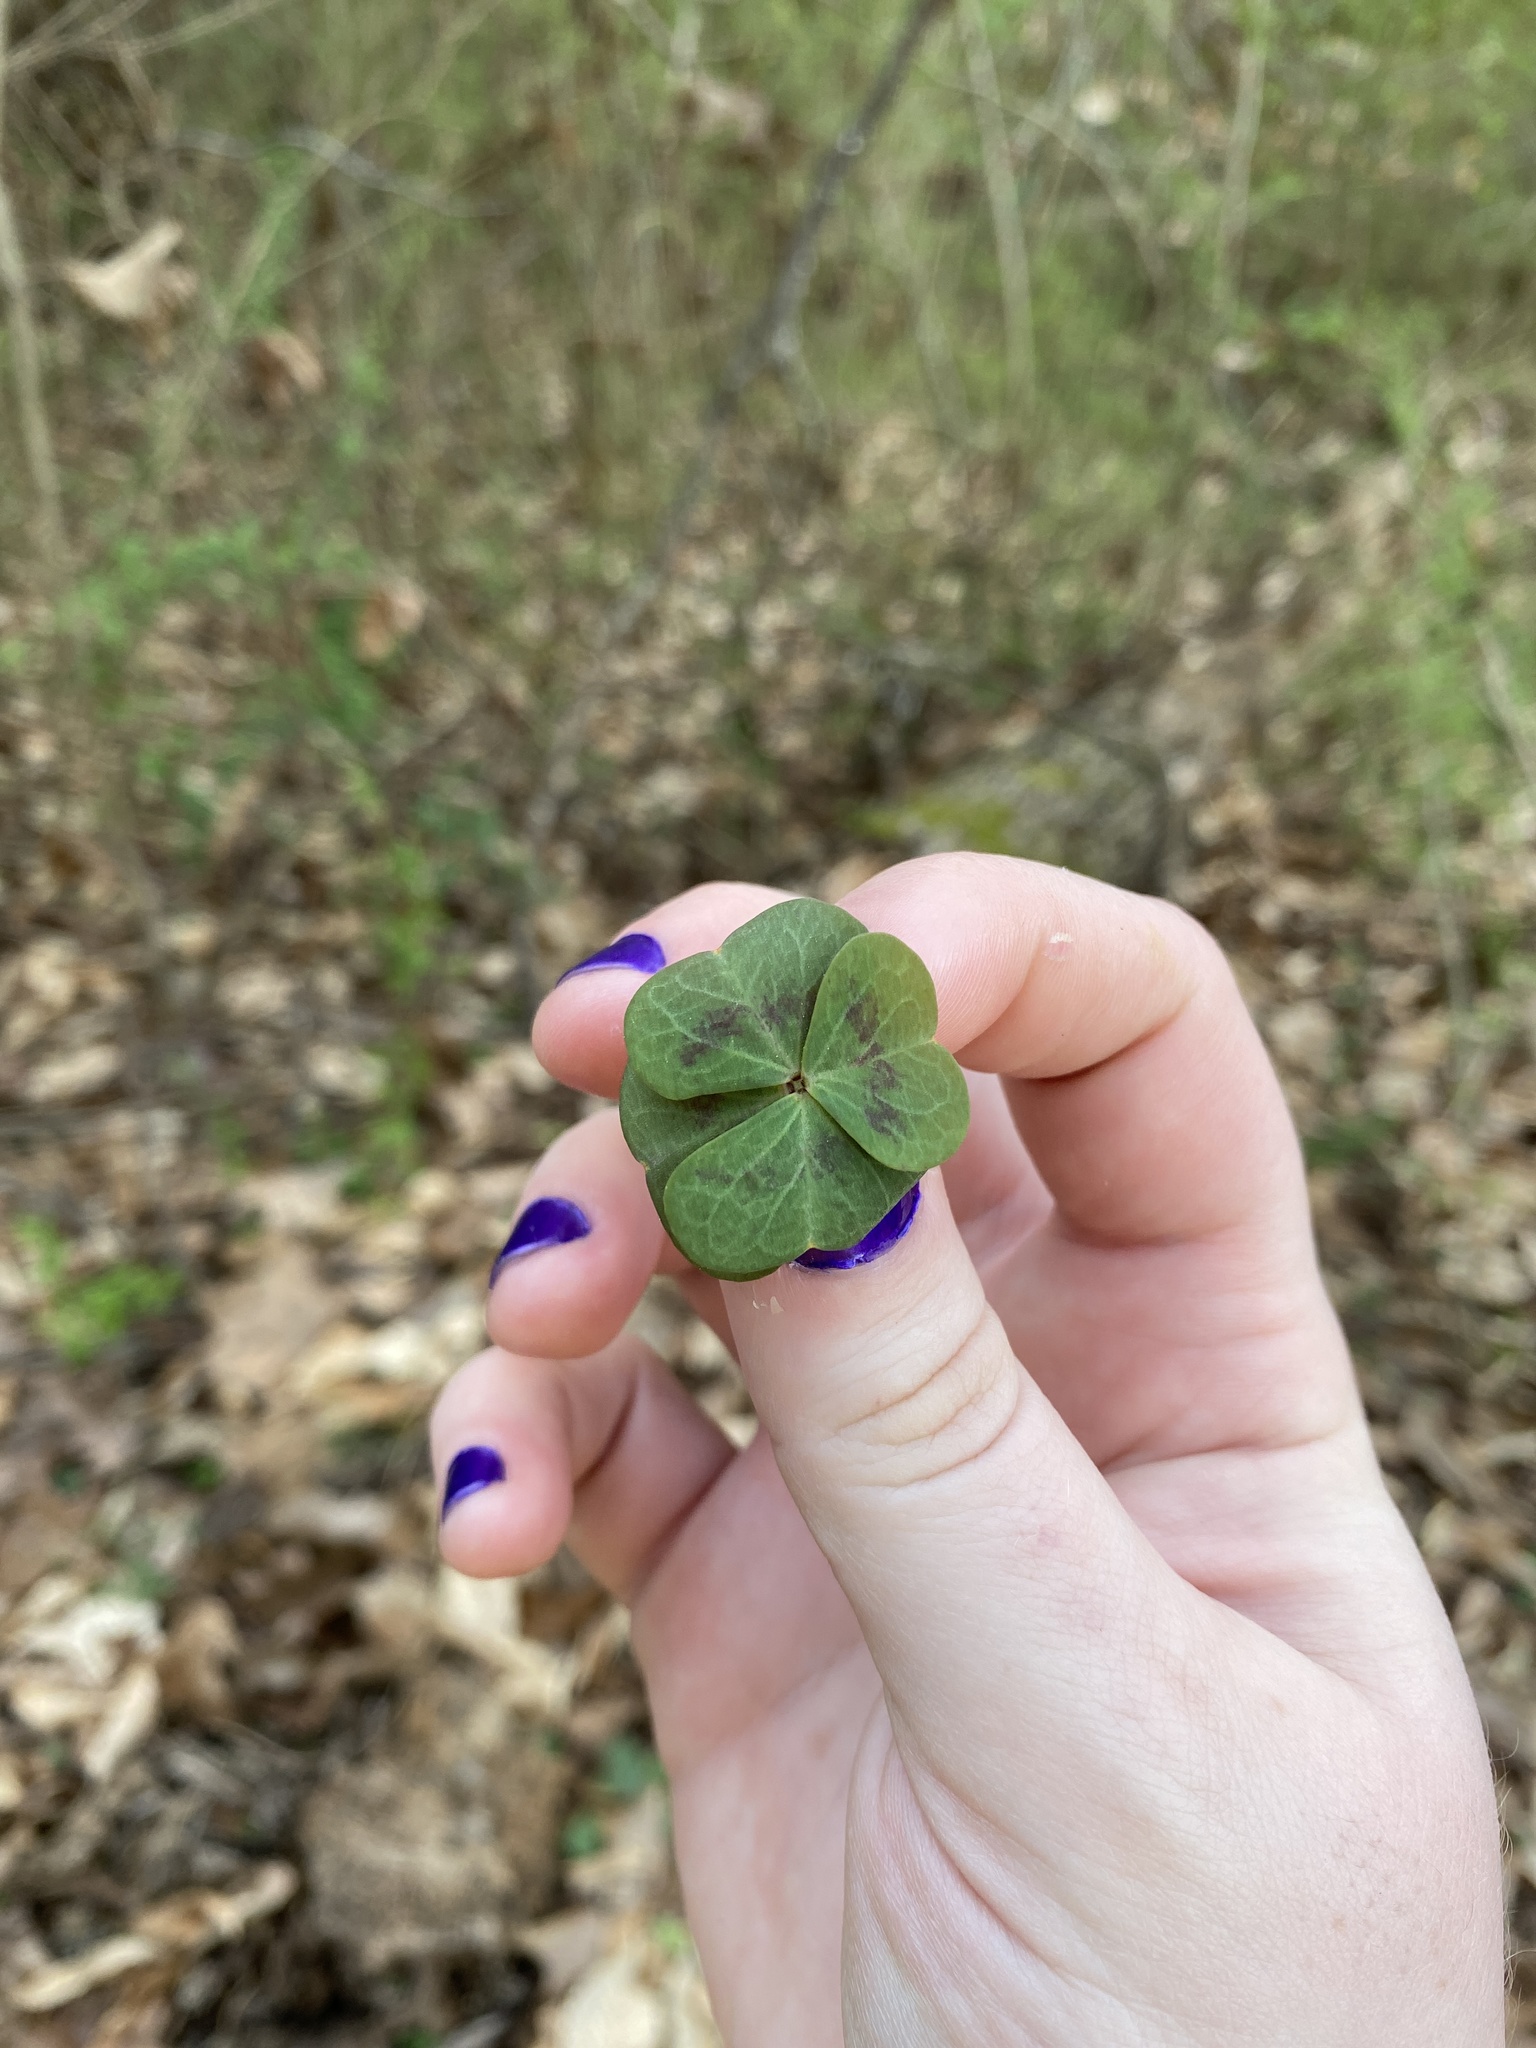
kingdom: Plantae
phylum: Tracheophyta
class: Magnoliopsida
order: Oxalidales
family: Oxalidaceae
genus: Oxalis
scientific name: Oxalis violacea
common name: Violet wood-sorrel
